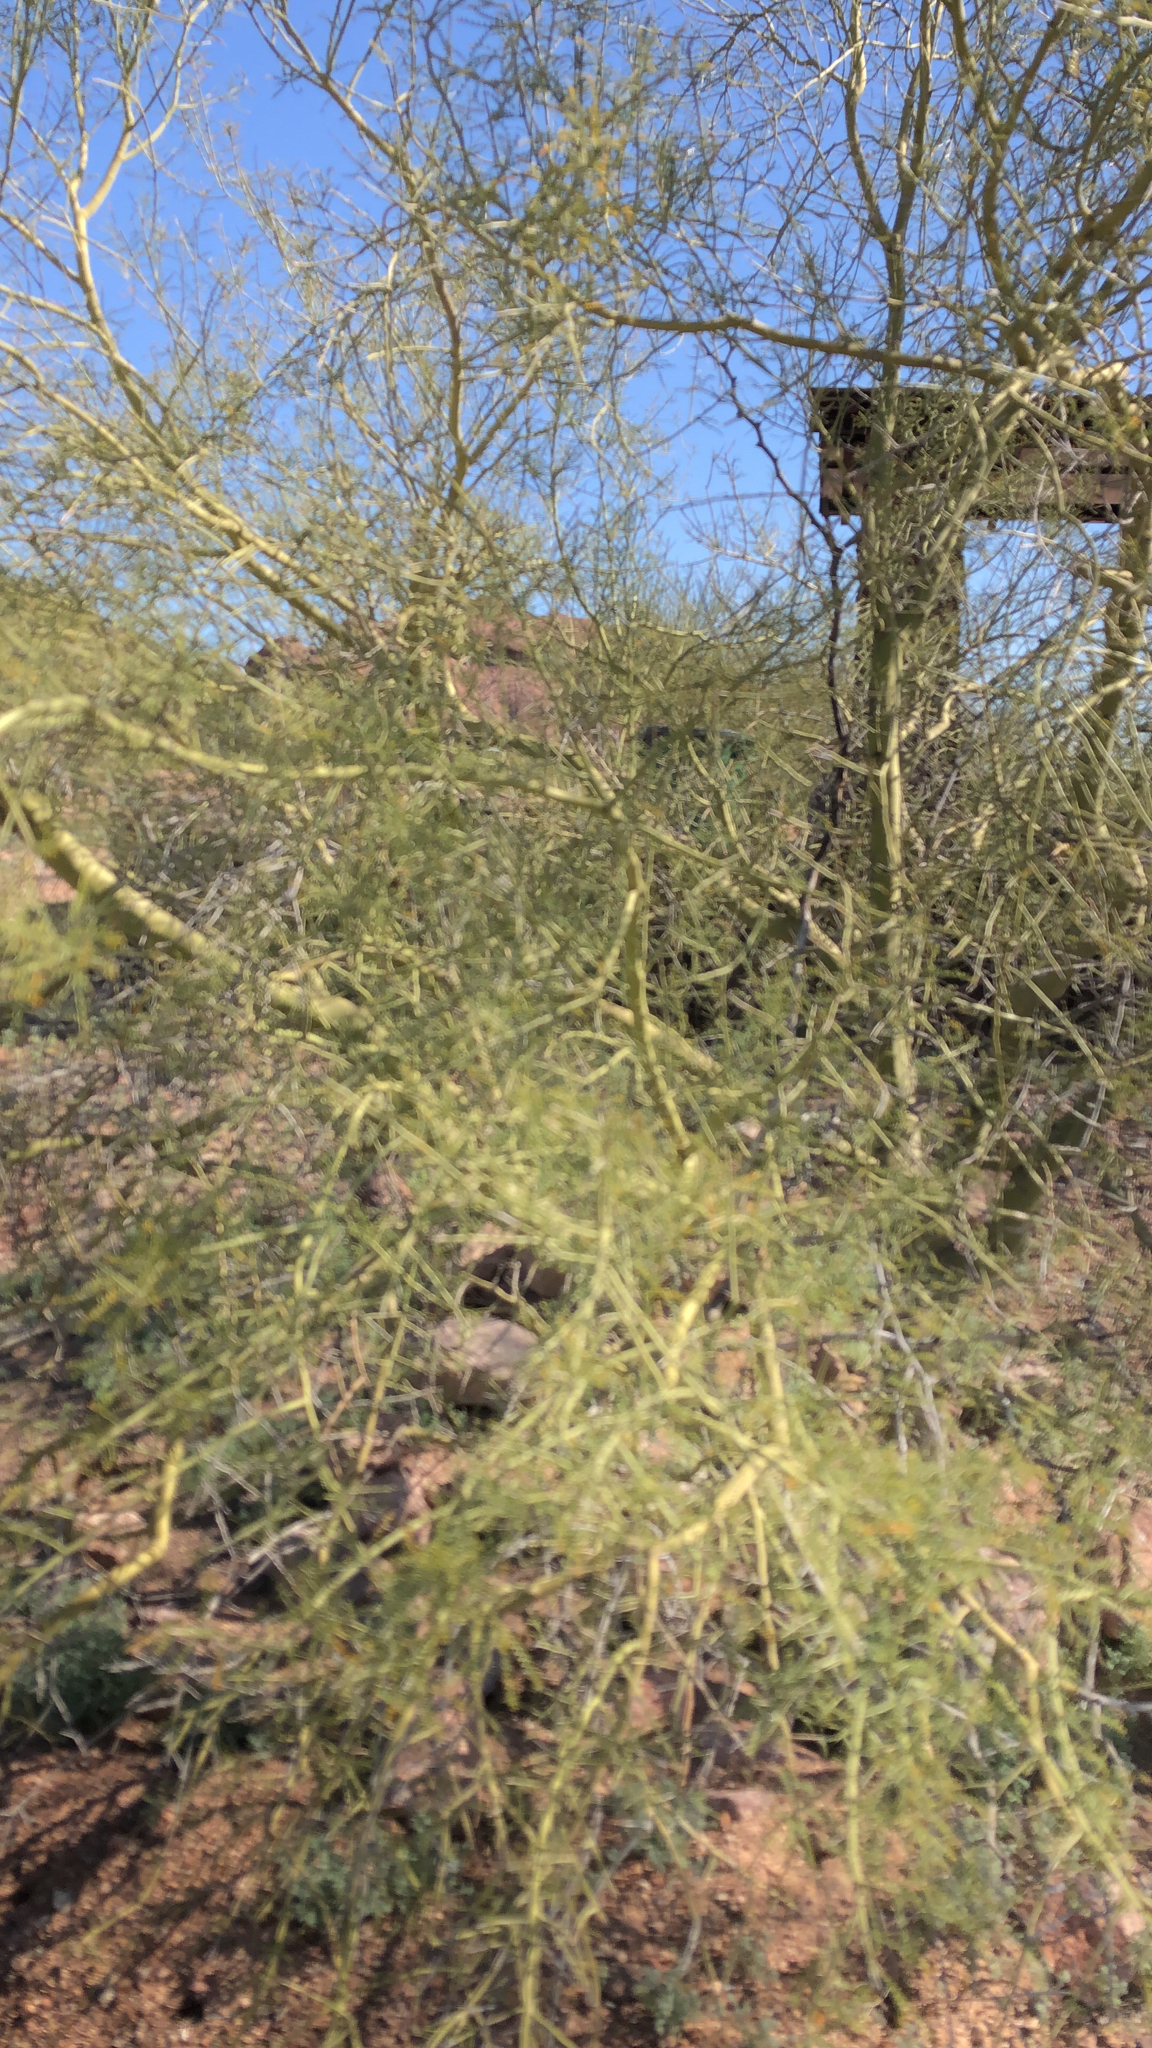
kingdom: Plantae
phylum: Tracheophyta
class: Magnoliopsida
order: Fabales
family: Fabaceae
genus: Parkinsonia
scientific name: Parkinsonia microphylla
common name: Yellow paloverde
